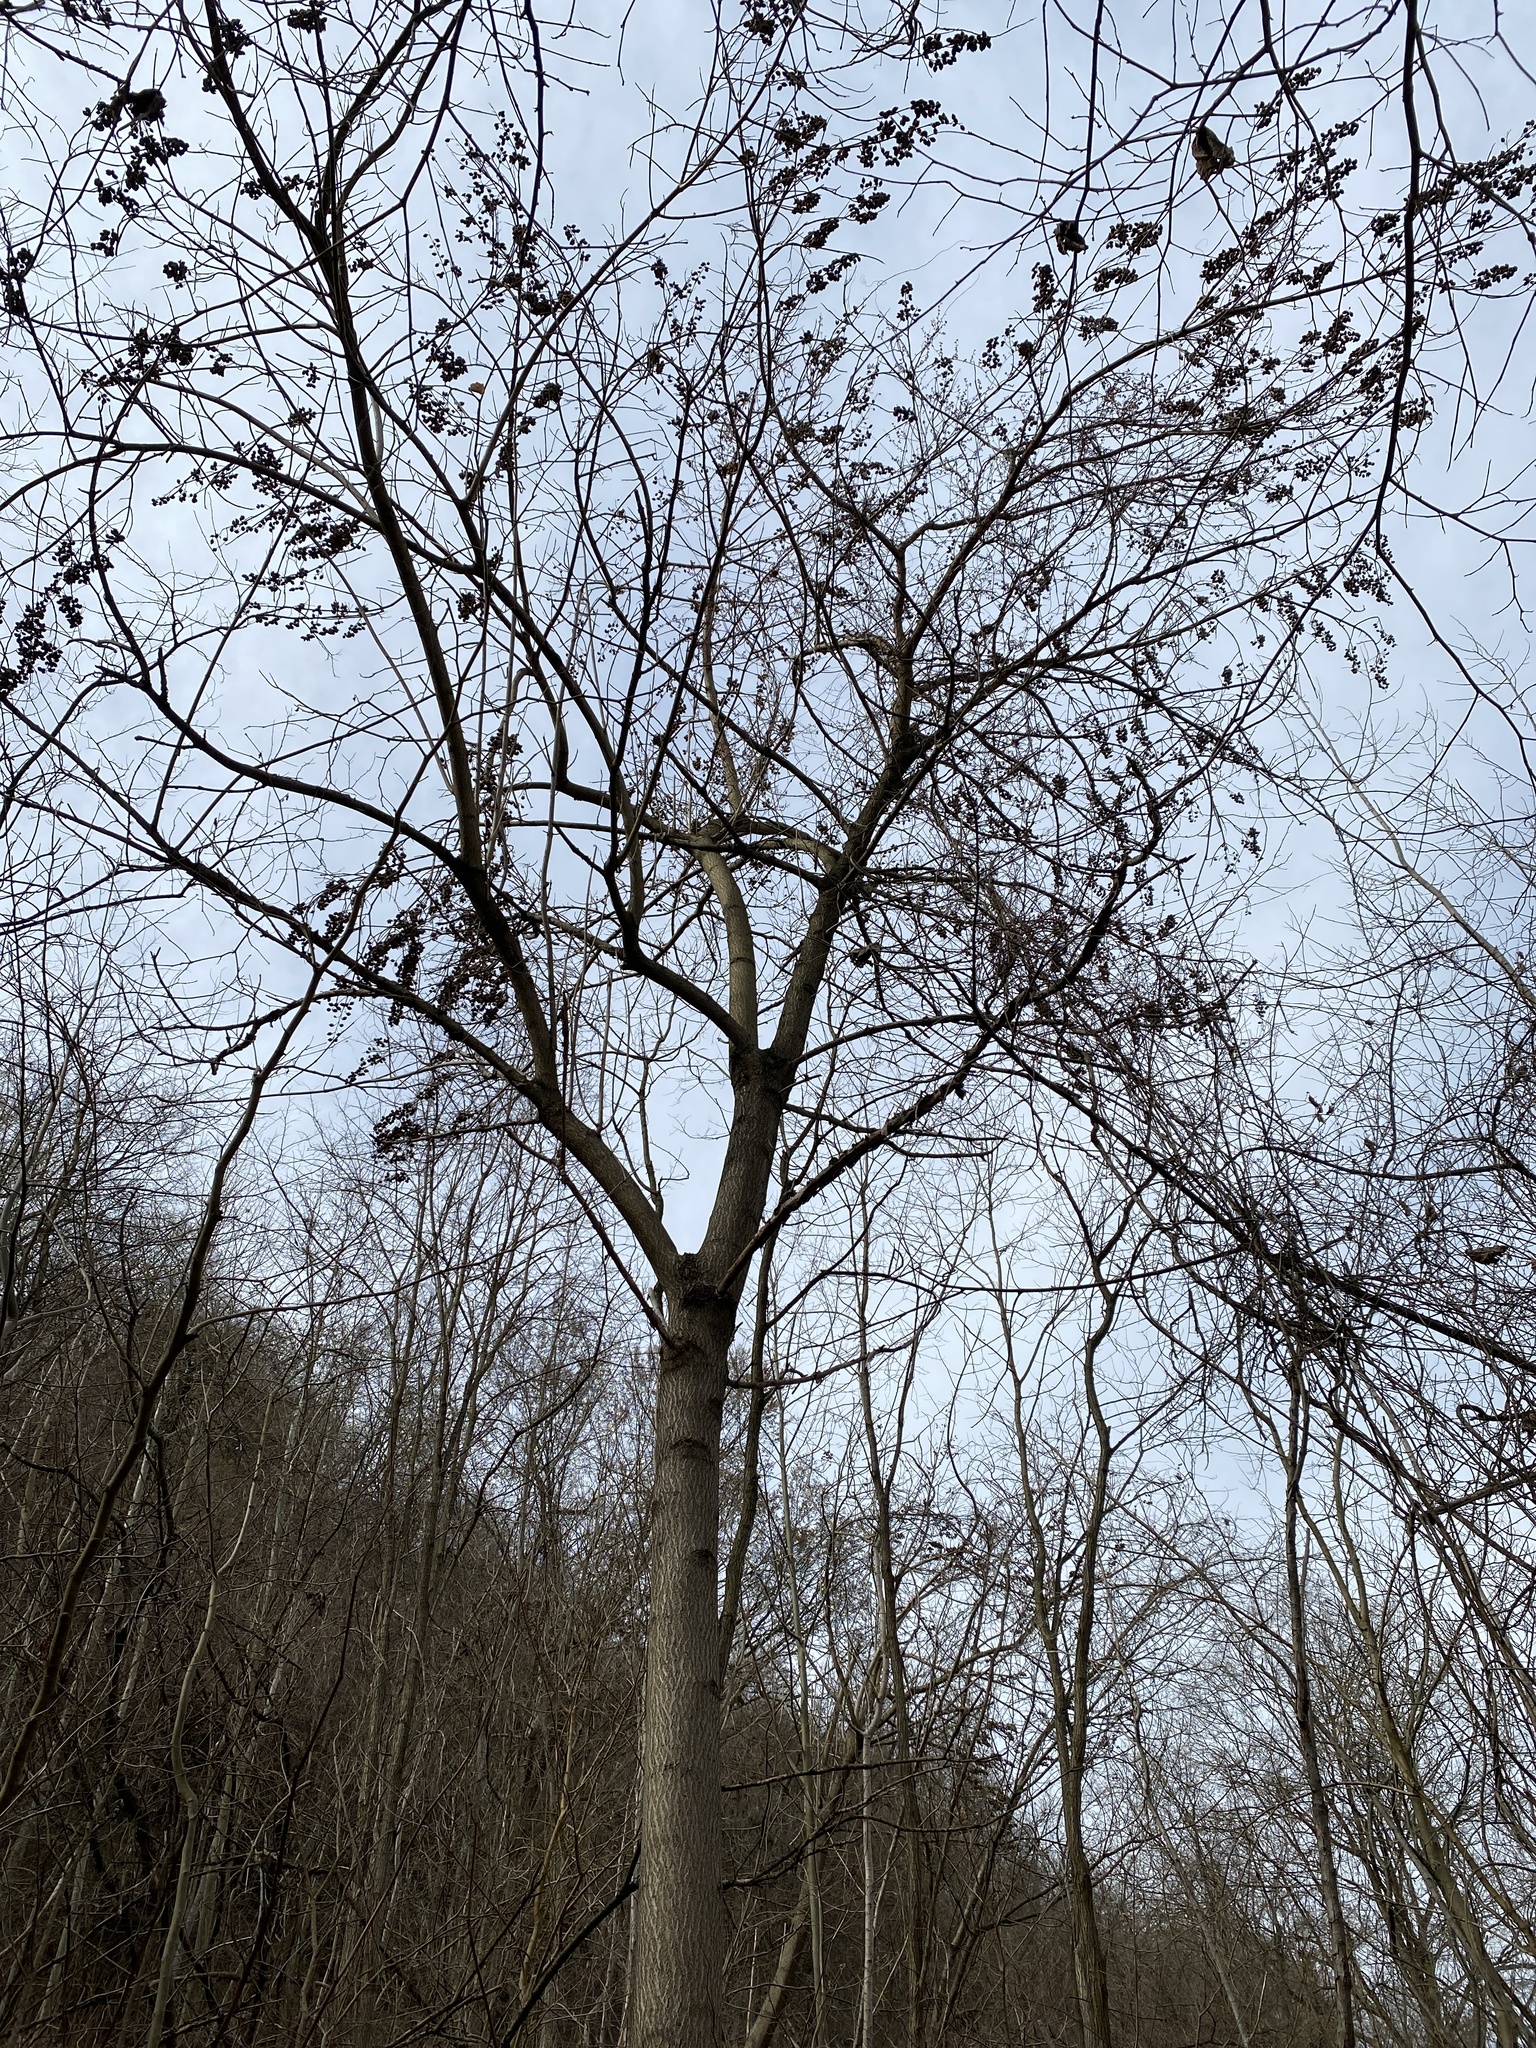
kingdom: Plantae
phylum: Tracheophyta
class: Magnoliopsida
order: Lamiales
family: Paulowniaceae
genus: Paulownia
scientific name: Paulownia tomentosa
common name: Foxglove-tree
